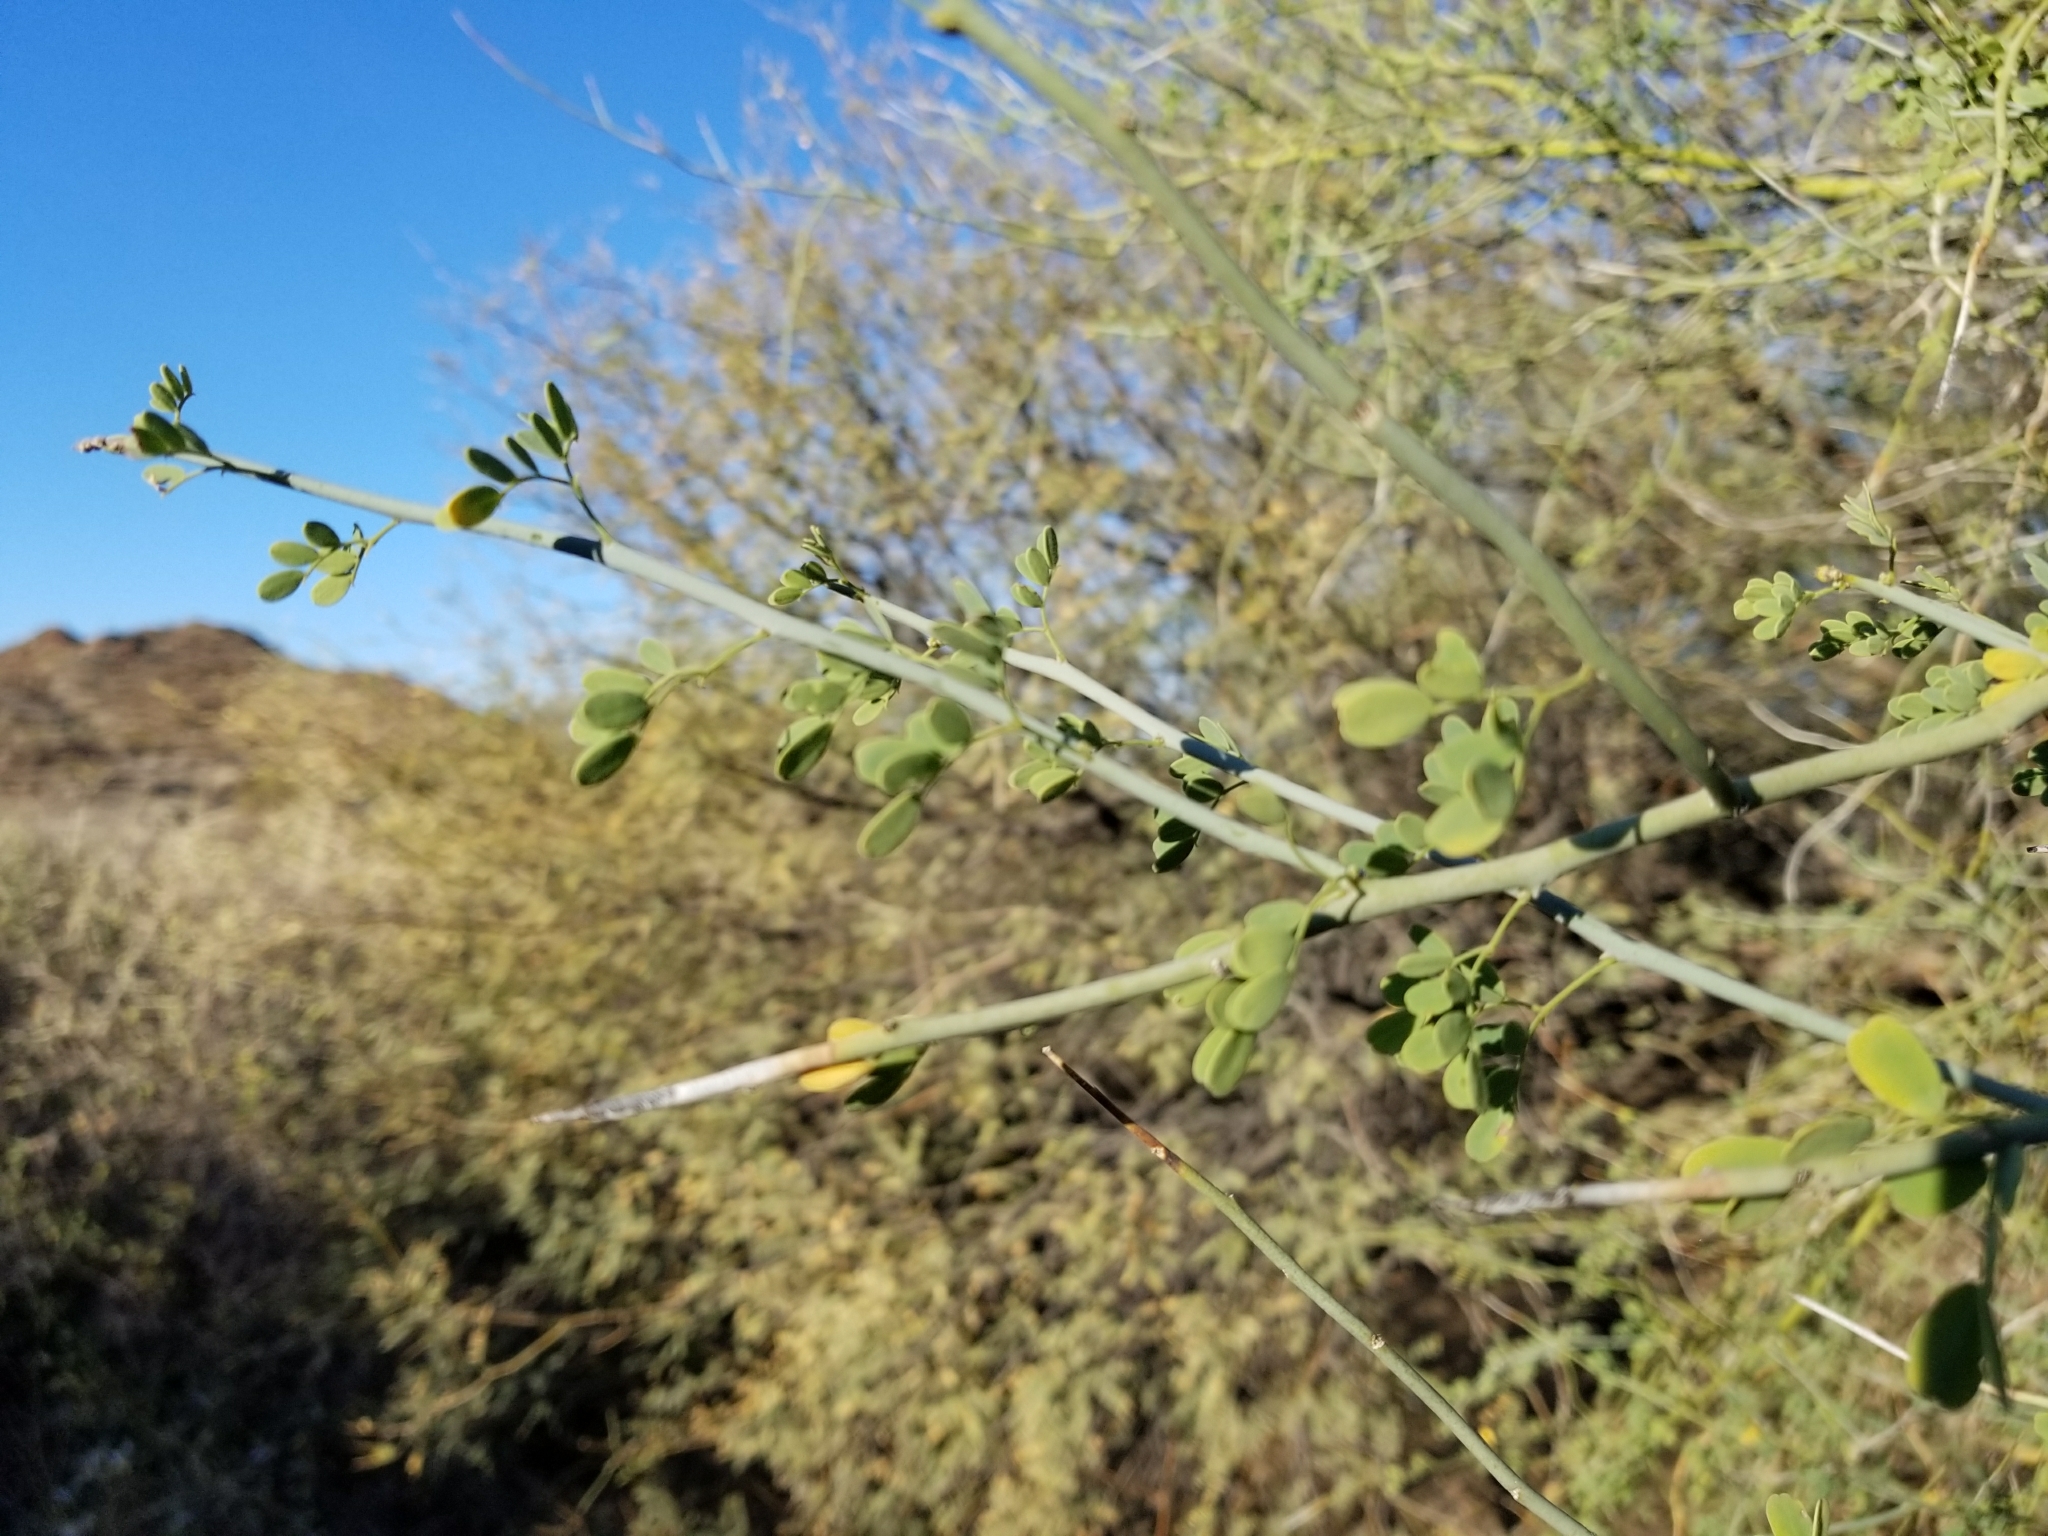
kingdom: Plantae
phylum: Tracheophyta
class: Magnoliopsida
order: Fabales
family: Fabaceae
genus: Parkinsonia
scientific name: Parkinsonia florida
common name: Blue paloverde
